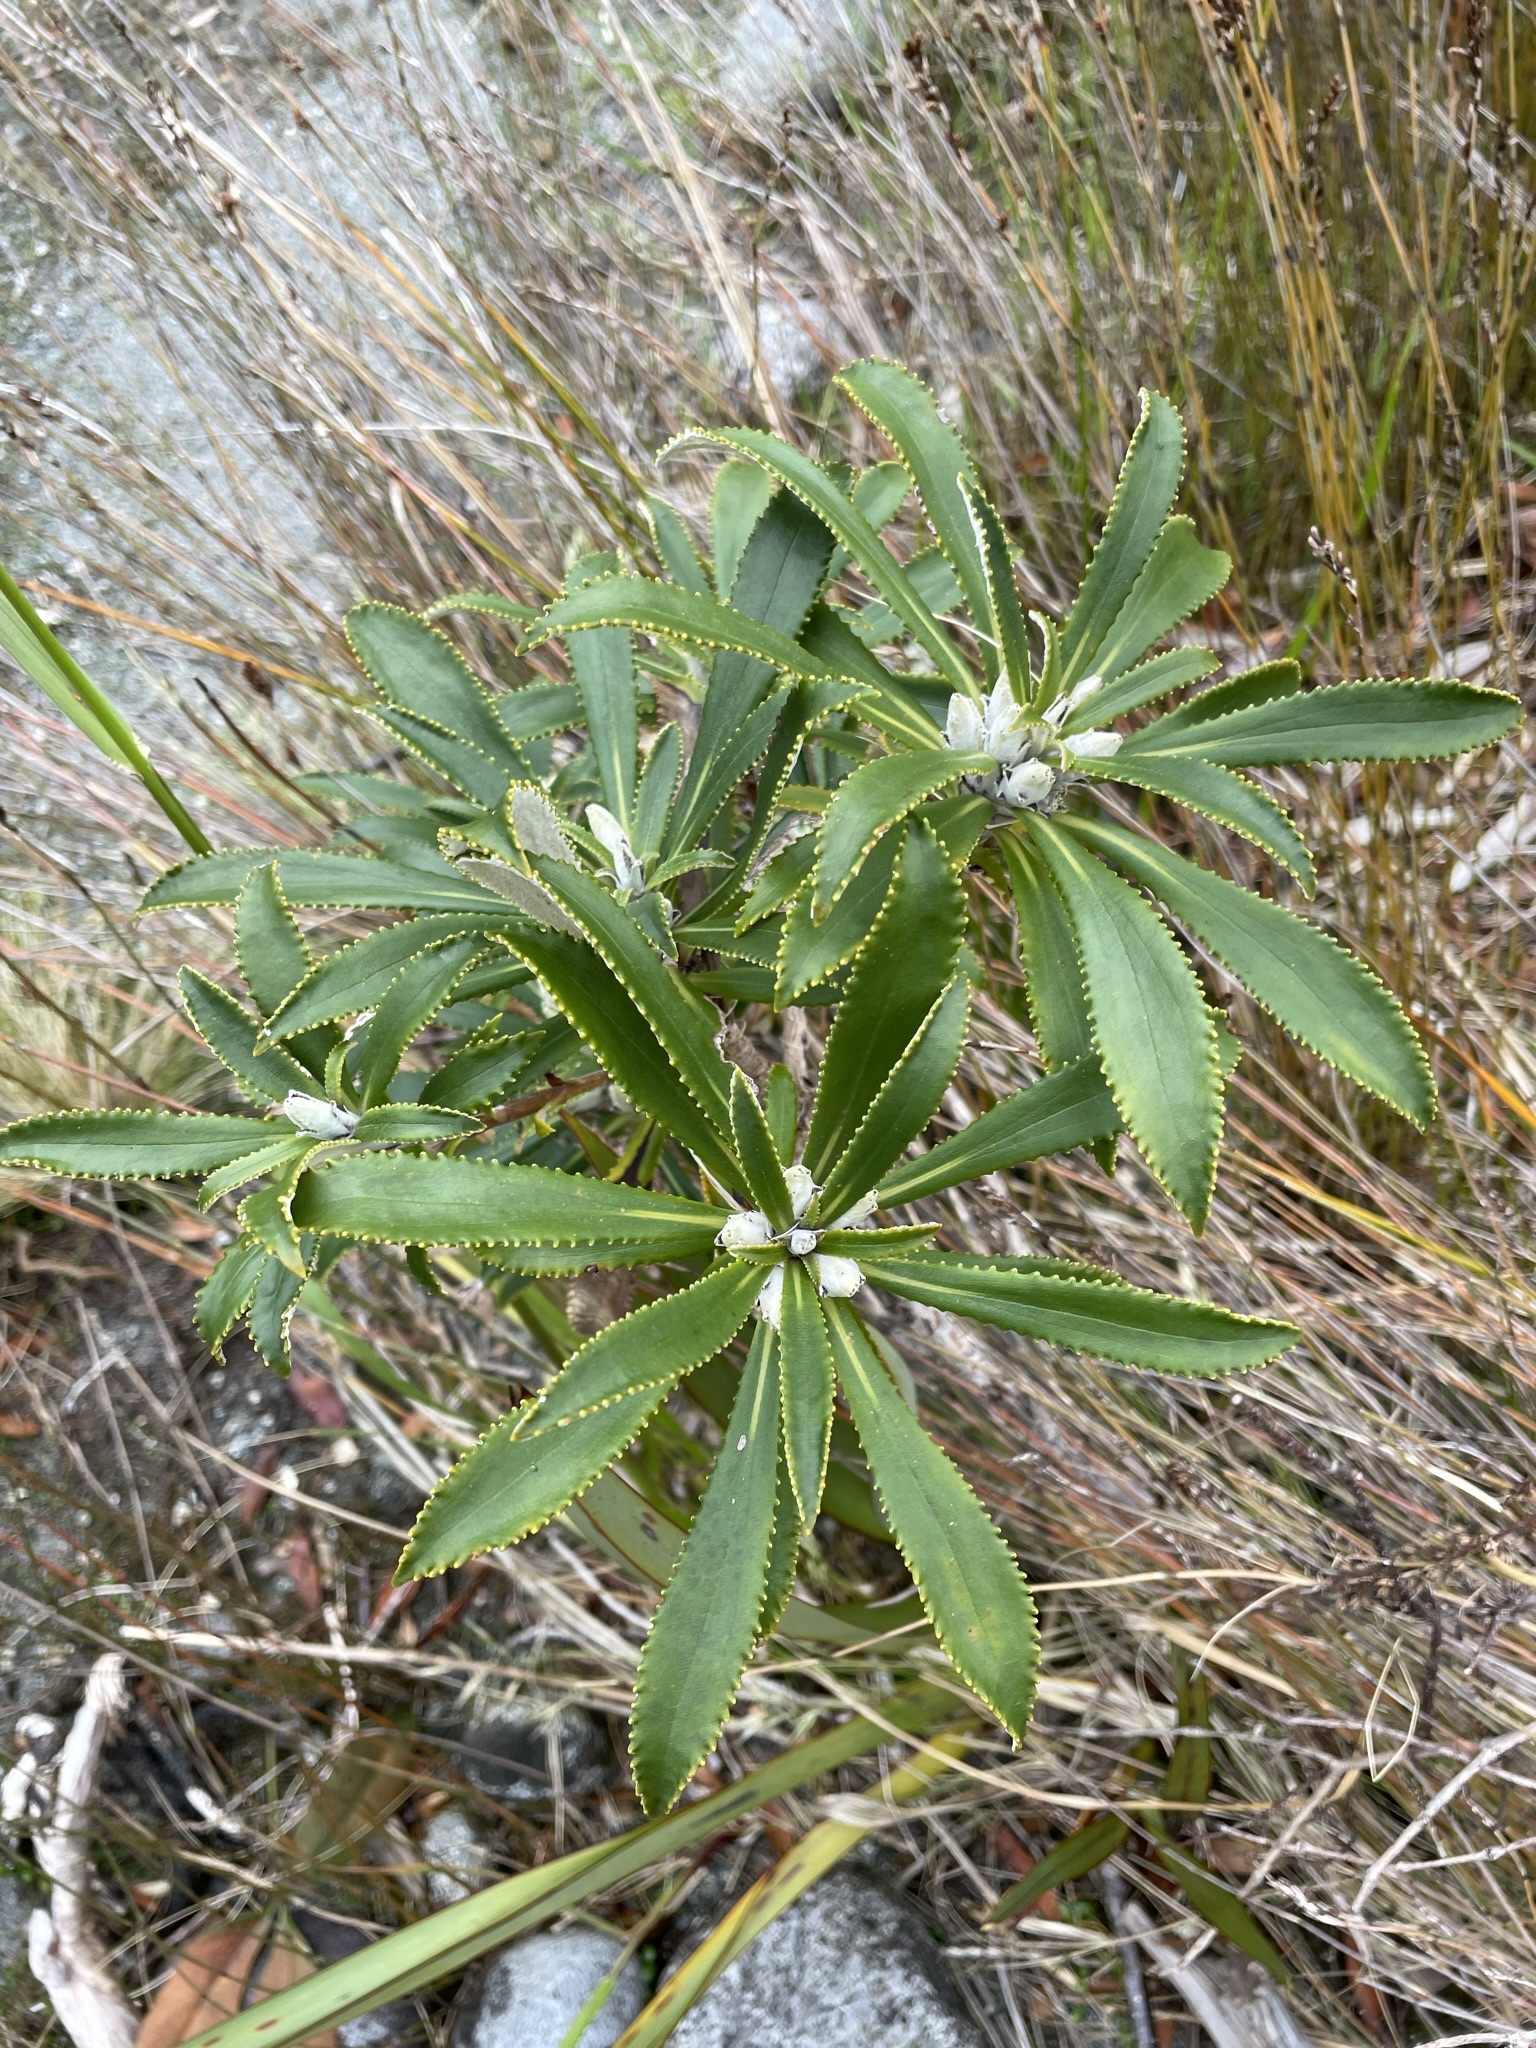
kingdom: Plantae
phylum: Tracheophyta
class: Magnoliopsida
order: Asterales
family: Asteraceae
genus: Macrolearia
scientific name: Macrolearia oporina
